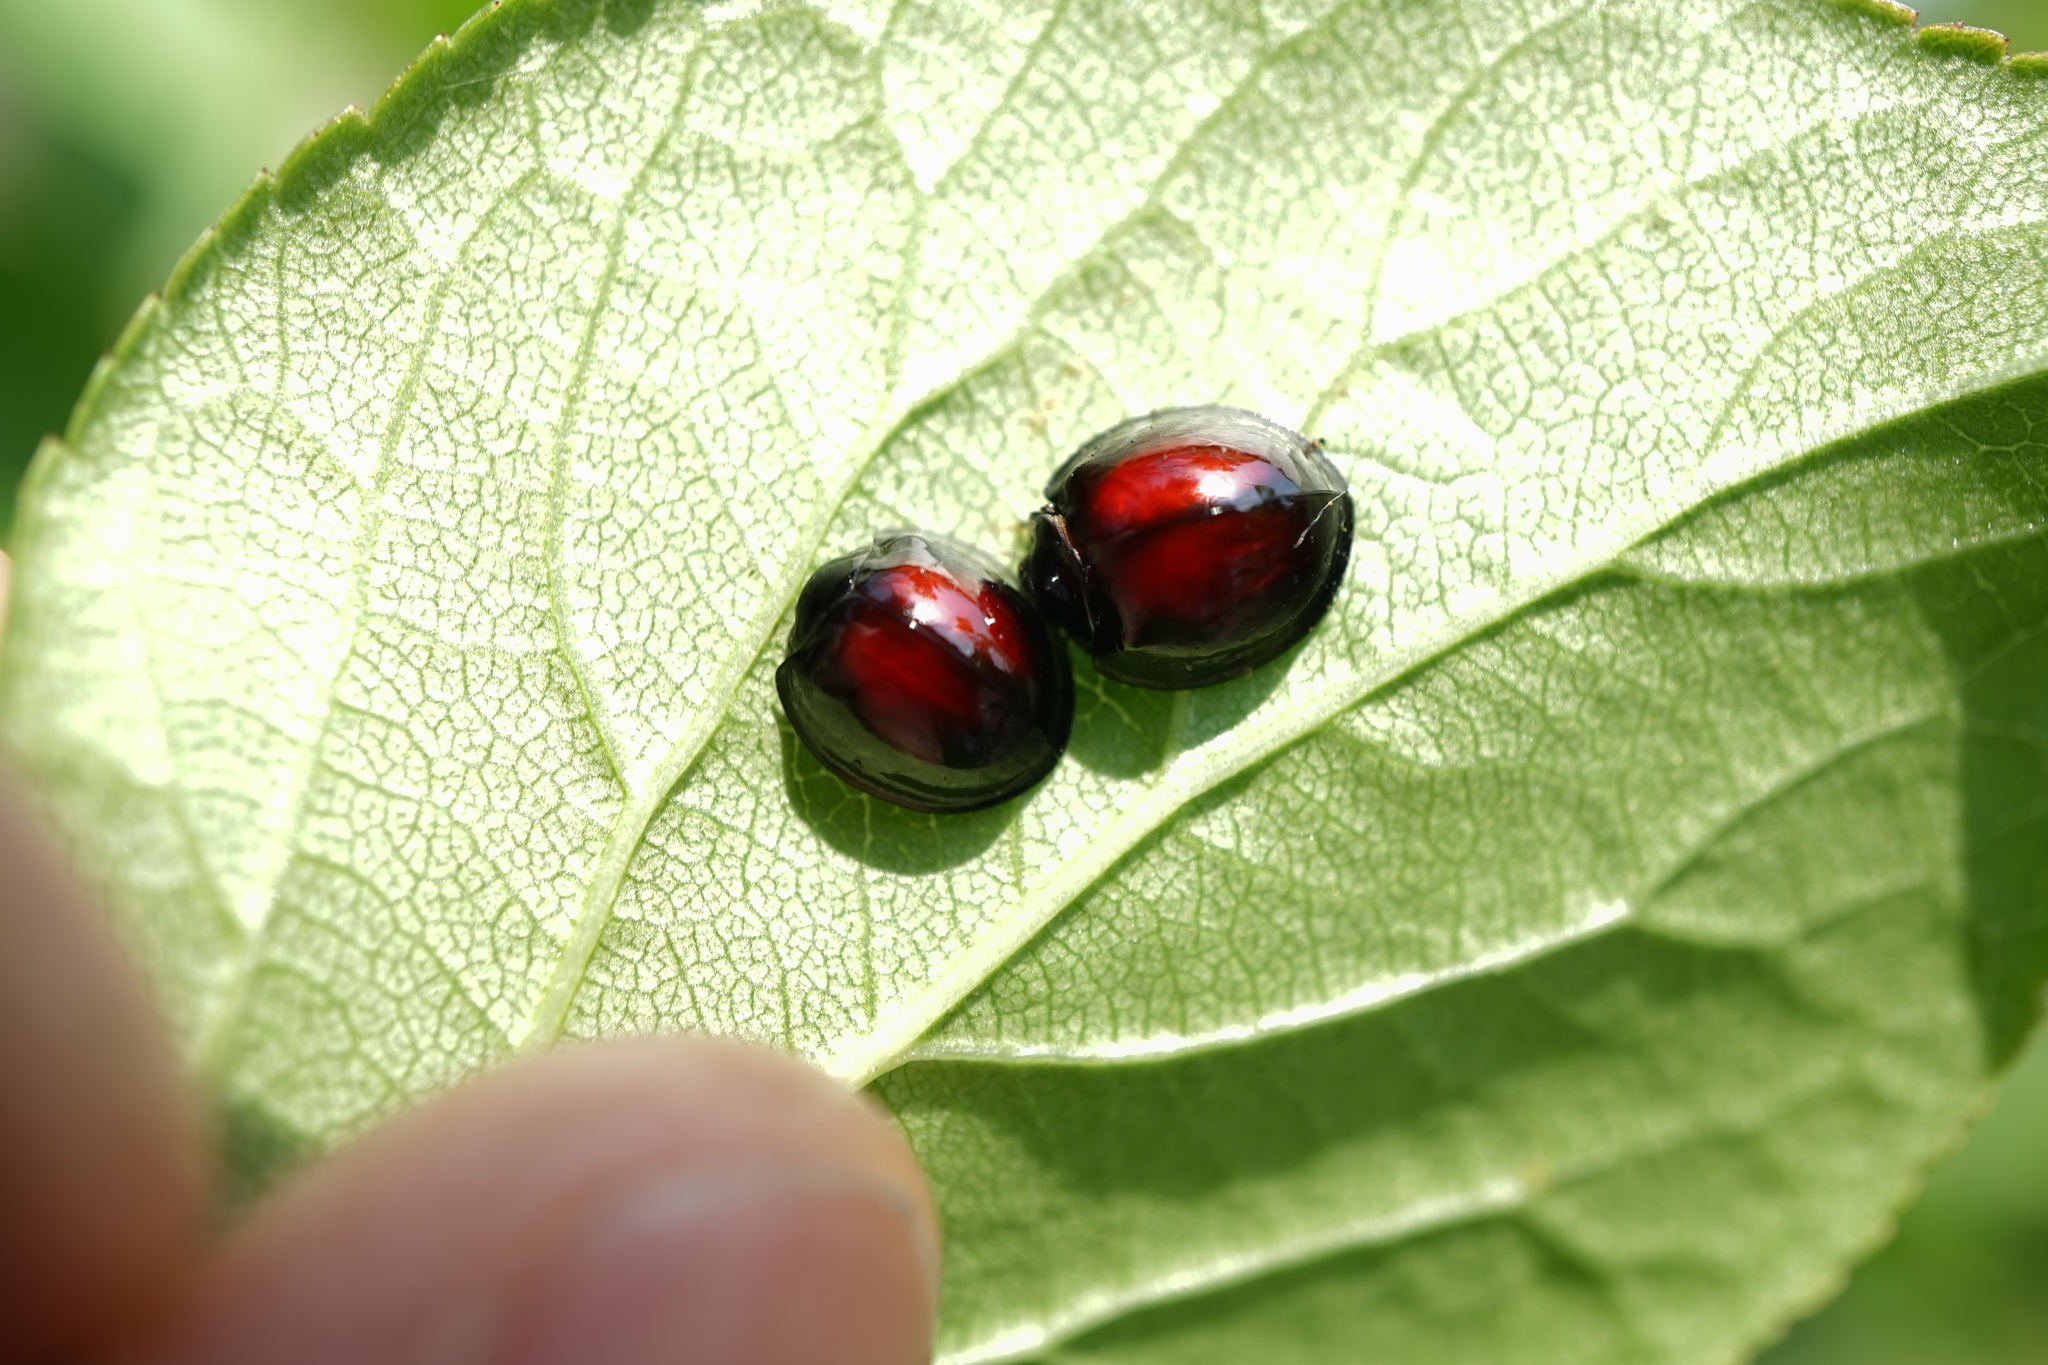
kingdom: Animalia
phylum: Arthropoda
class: Insecta
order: Coleoptera
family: Coccinellidae
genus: Chilocorus
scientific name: Chilocorus rubidus
